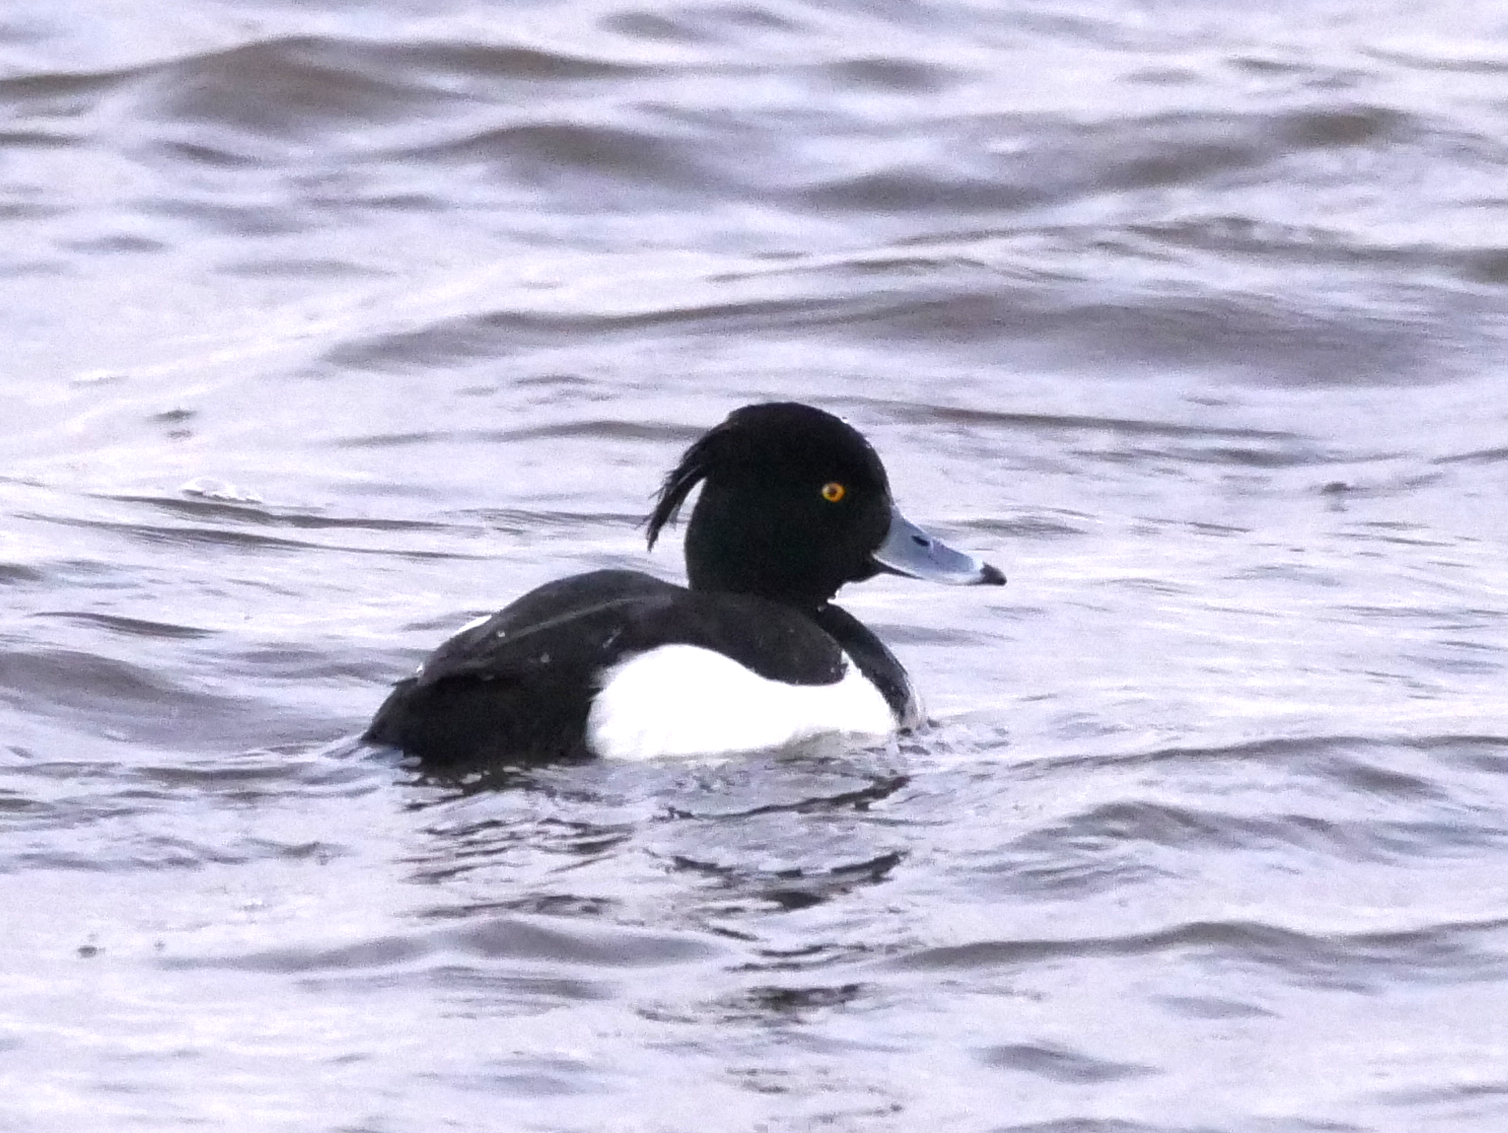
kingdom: Animalia
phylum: Chordata
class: Aves
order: Anseriformes
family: Anatidae
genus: Aythya
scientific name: Aythya fuligula
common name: Tufted duck
